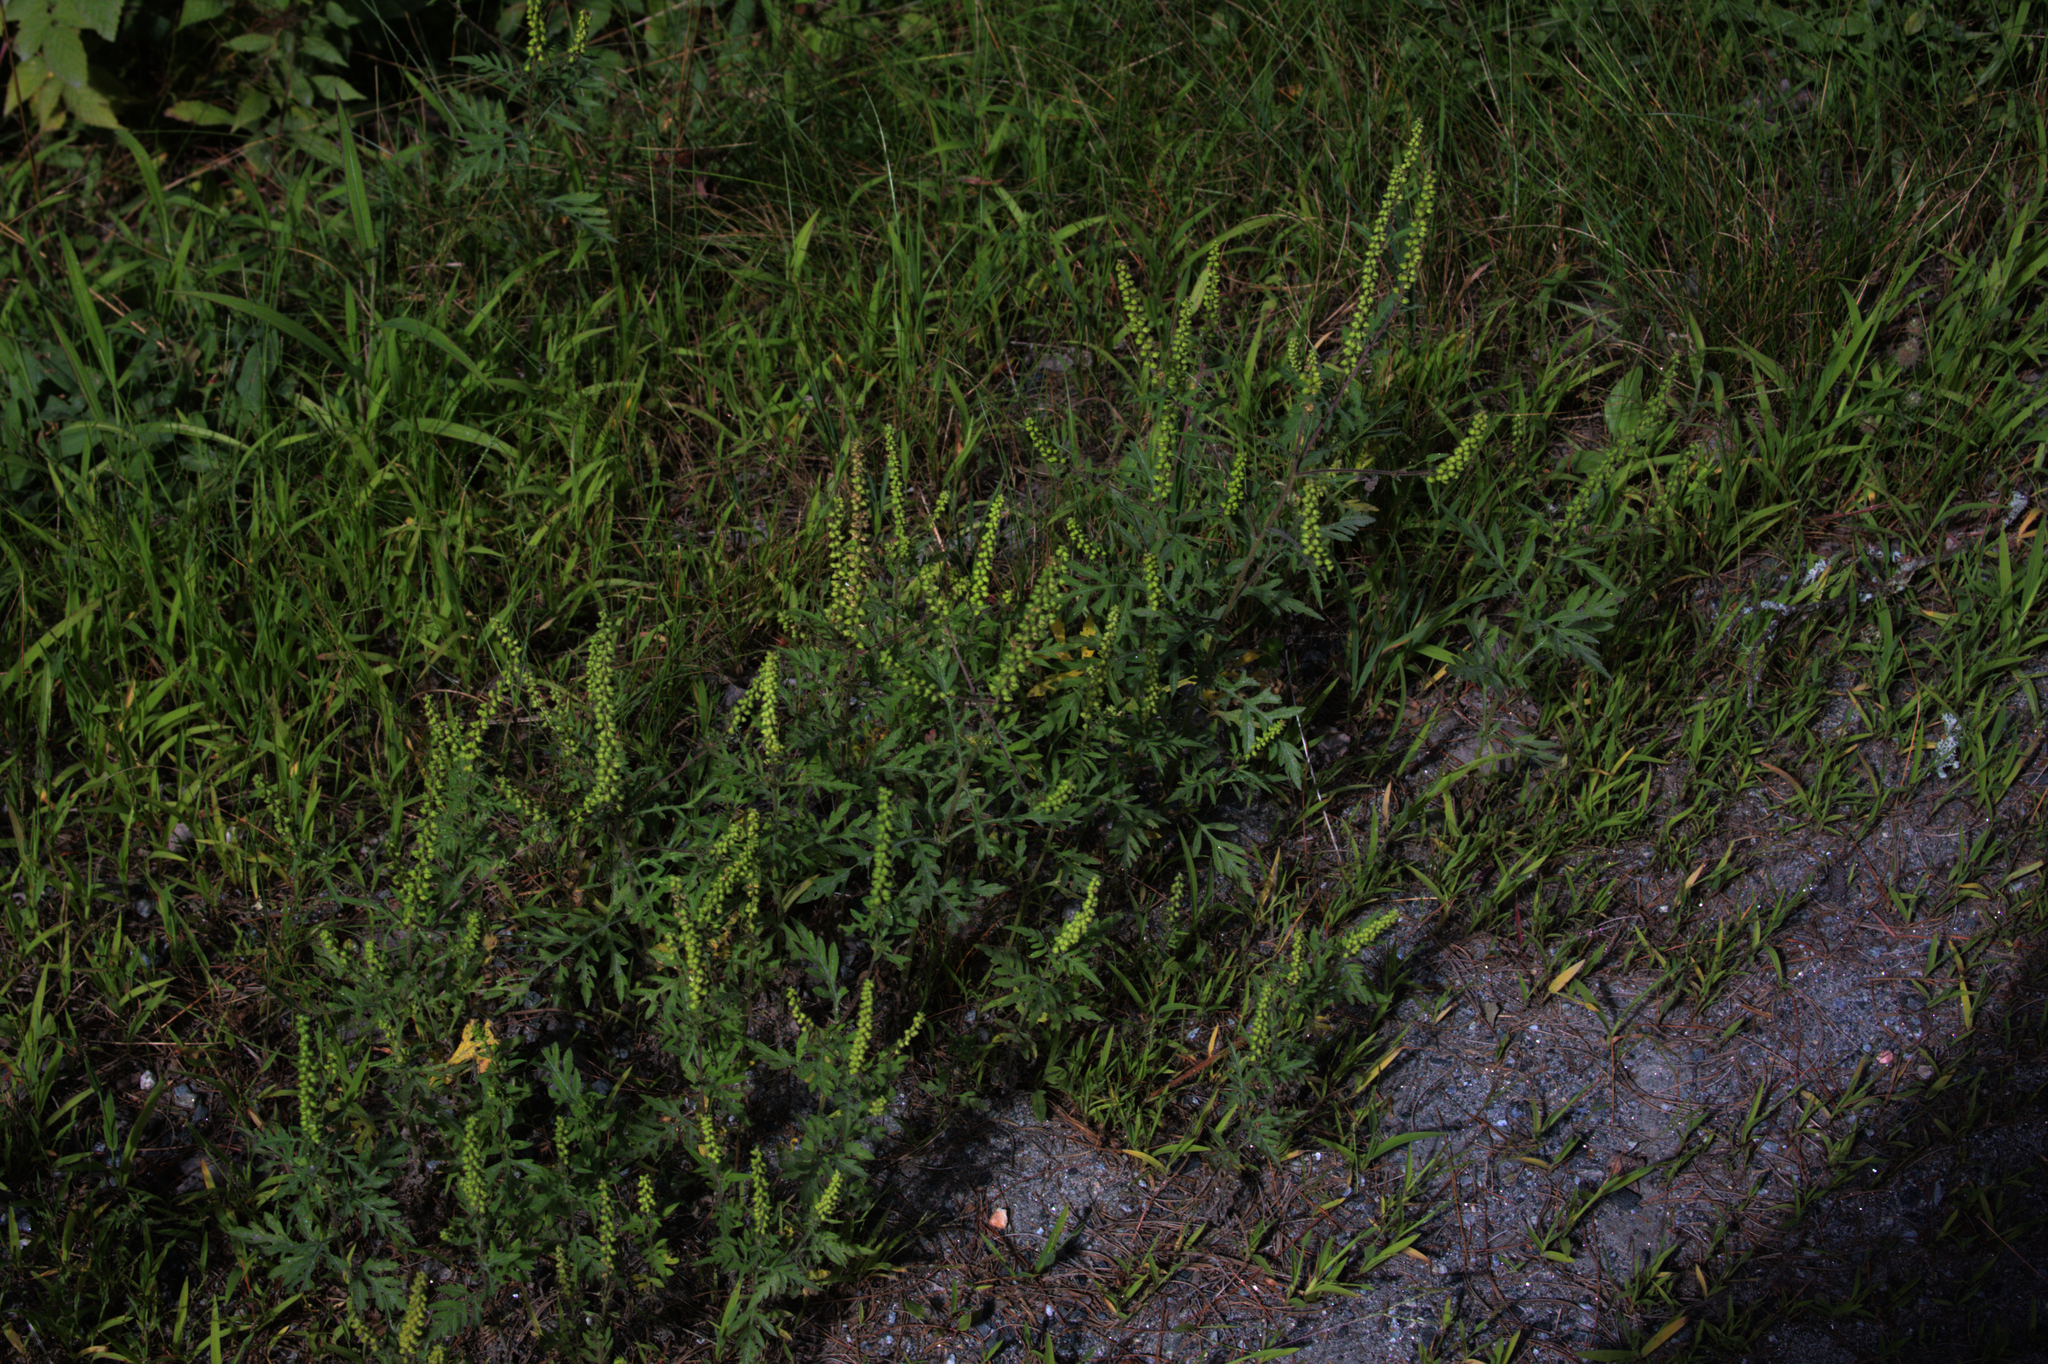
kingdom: Plantae
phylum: Tracheophyta
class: Magnoliopsida
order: Asterales
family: Asteraceae
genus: Ambrosia
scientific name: Ambrosia artemisiifolia
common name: Annual ragweed
